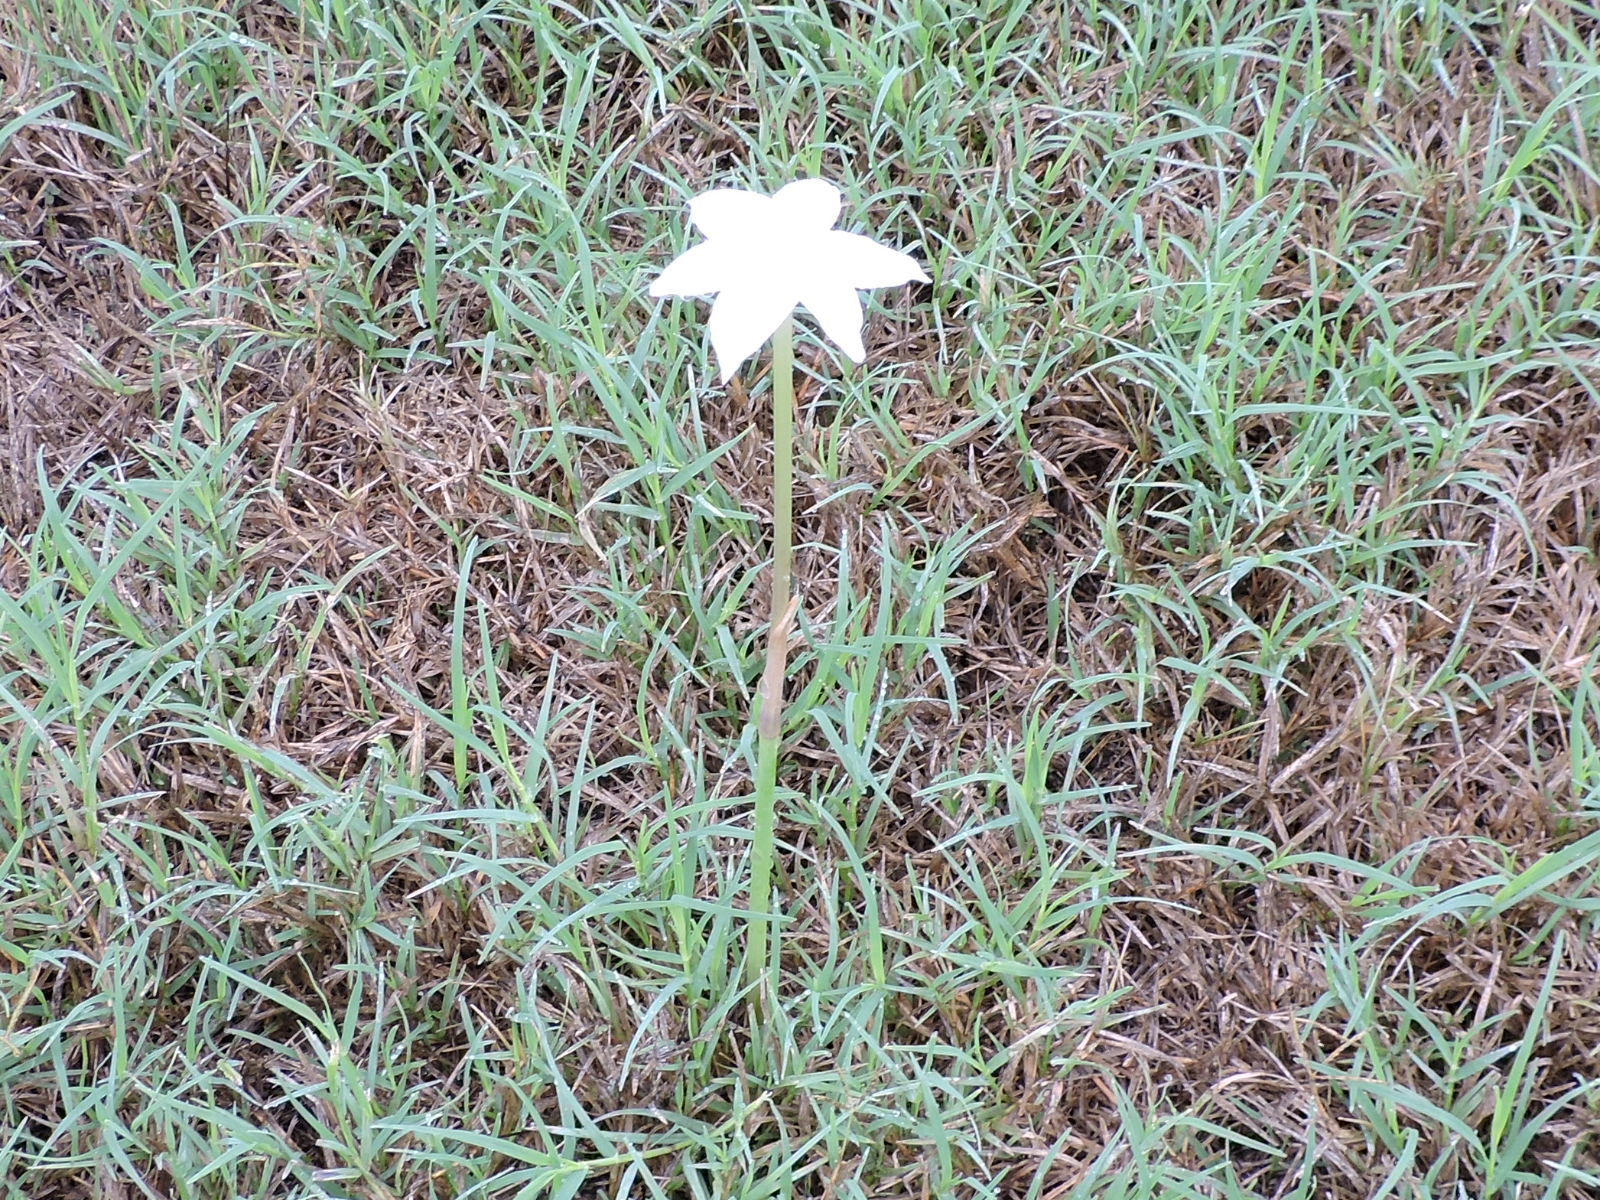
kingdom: Plantae
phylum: Tracheophyta
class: Liliopsida
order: Asparagales
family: Amaryllidaceae
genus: Zephyranthes
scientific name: Zephyranthes chlorosolen
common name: Evening rain-lily
